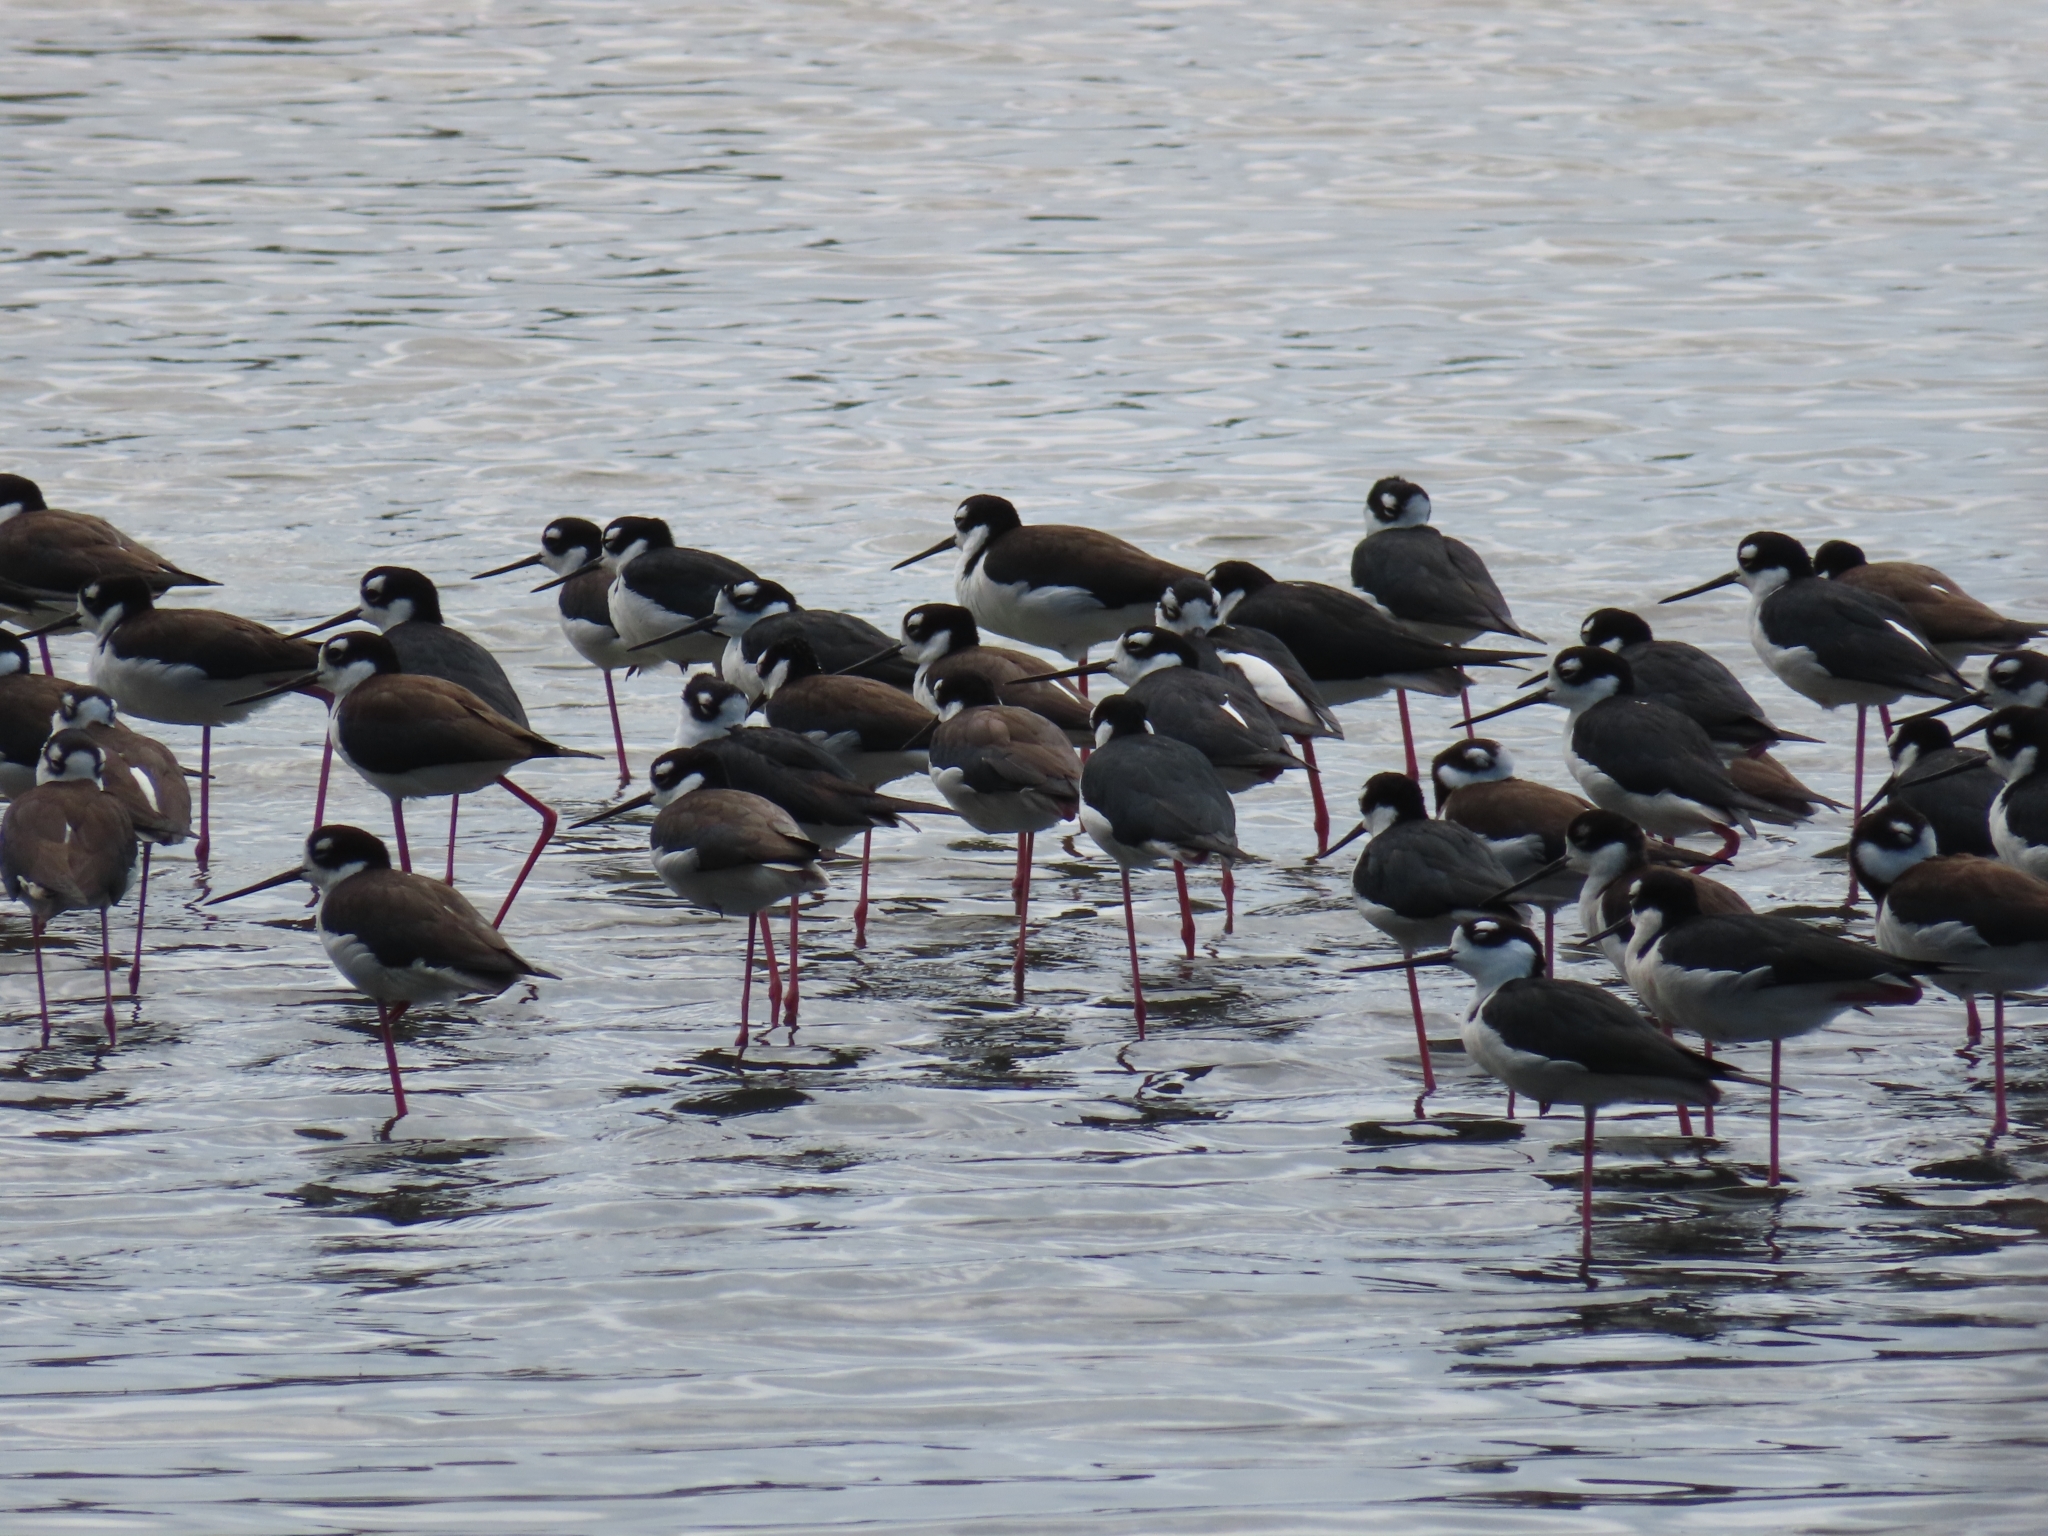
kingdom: Animalia
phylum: Chordata
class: Aves
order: Charadriiformes
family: Recurvirostridae
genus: Himantopus
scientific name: Himantopus mexicanus
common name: Black-necked stilt
